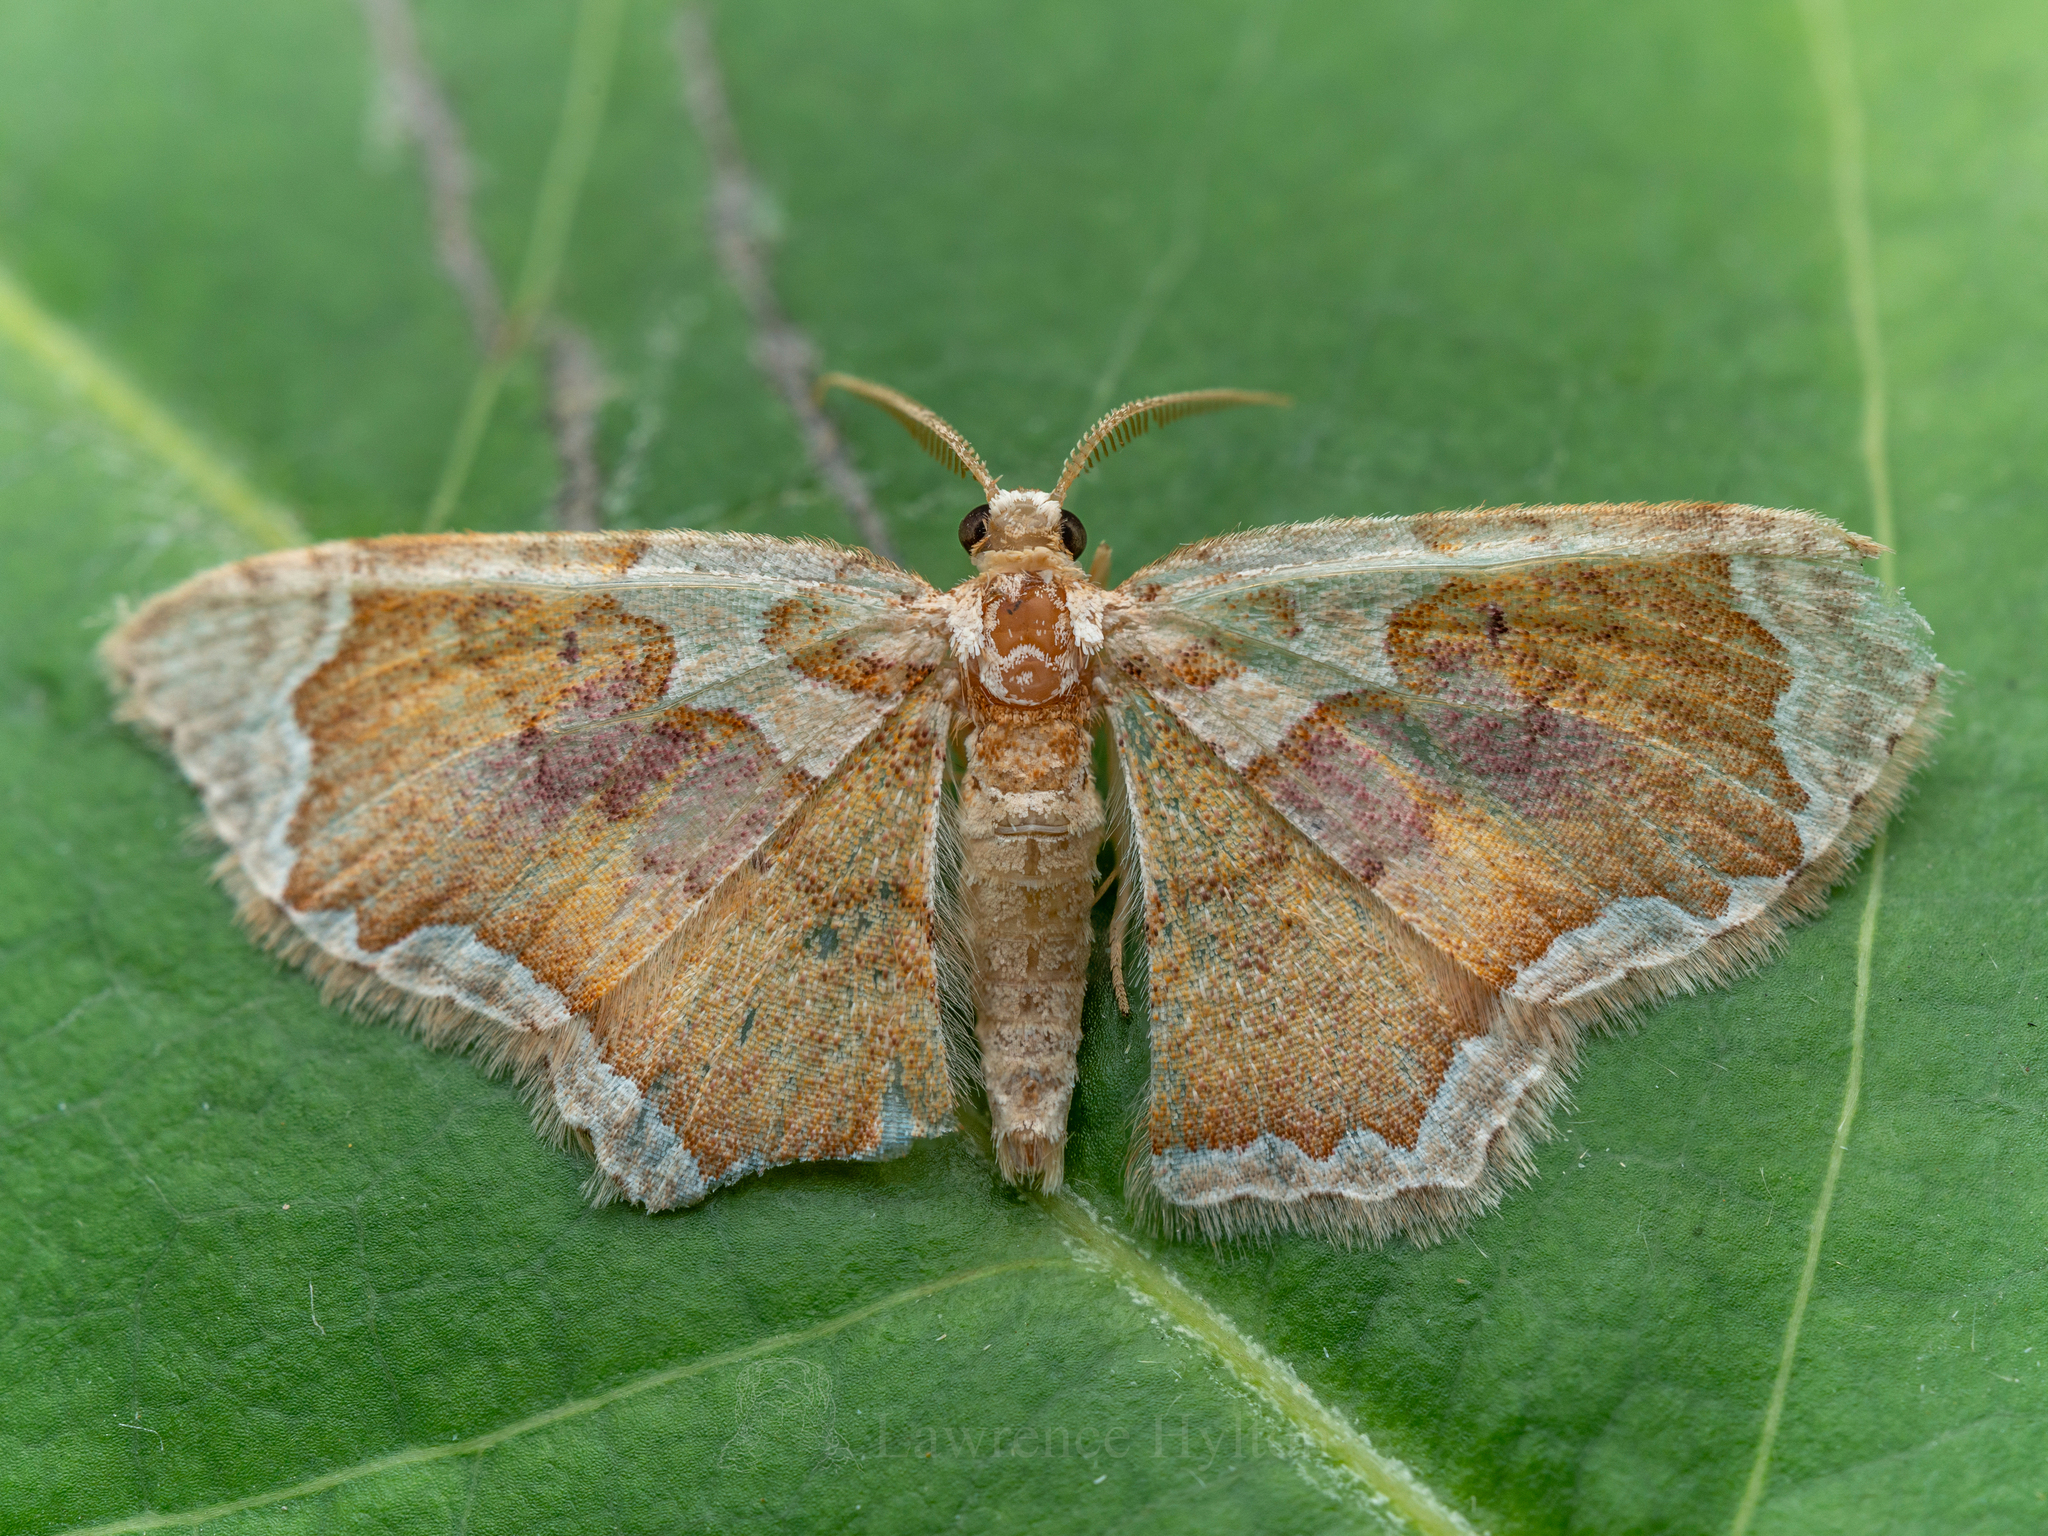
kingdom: Animalia
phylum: Arthropoda
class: Insecta
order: Lepidoptera
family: Geometridae
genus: Palpoctenidia
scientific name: Palpoctenidia phoenicosoma
